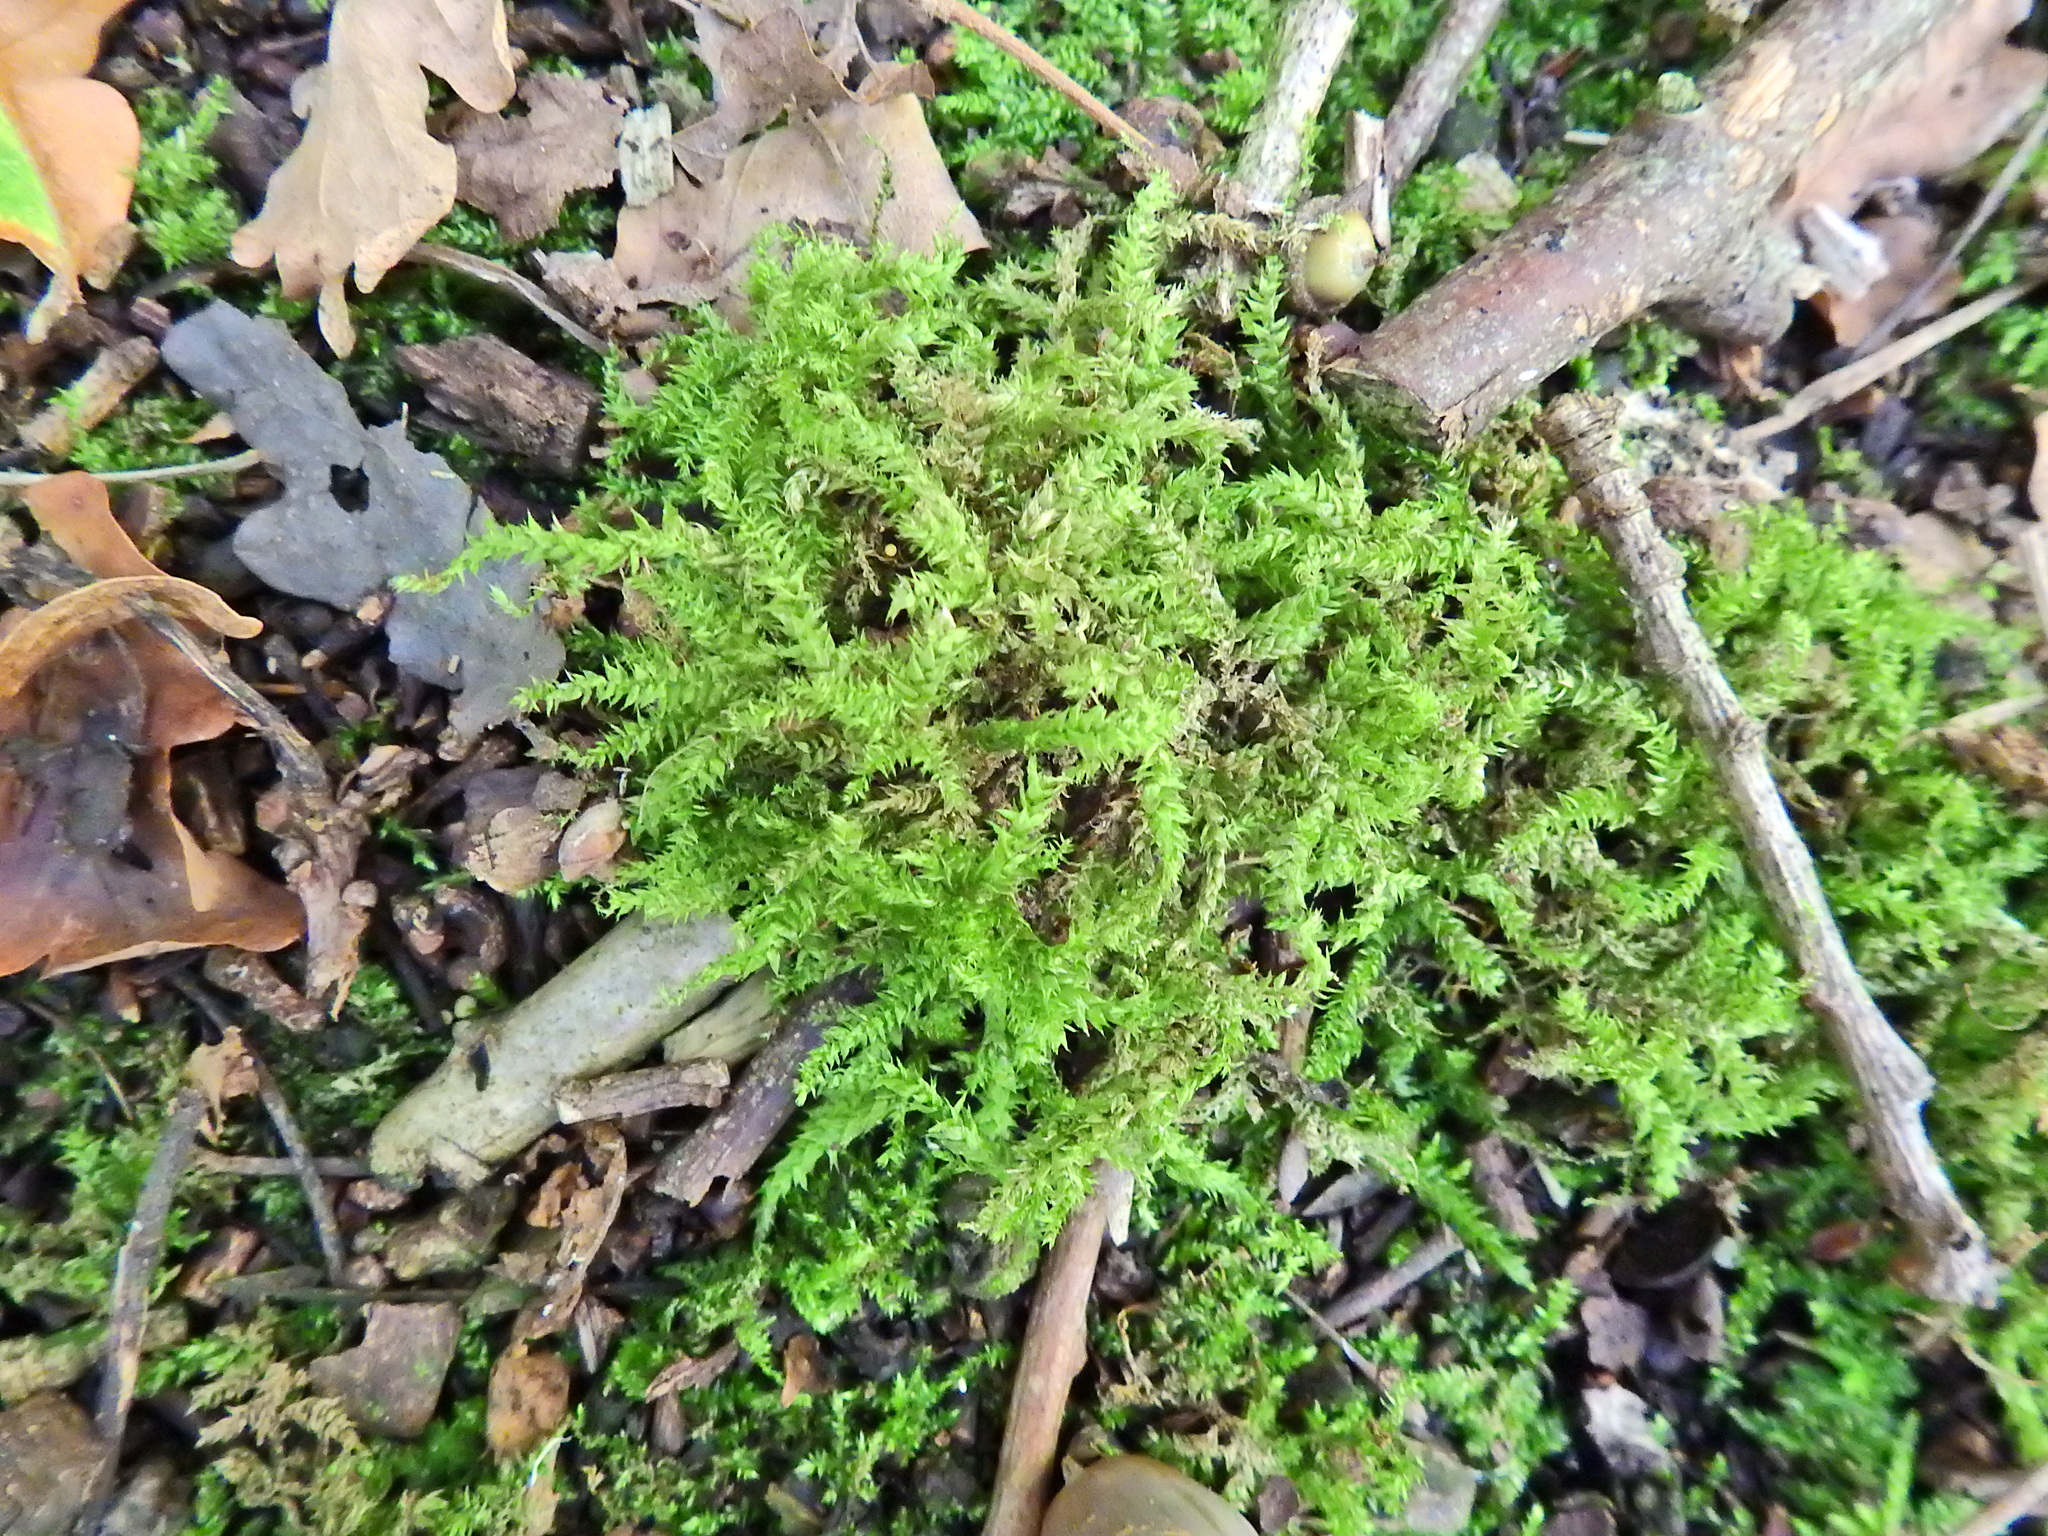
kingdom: Plantae
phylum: Bryophyta
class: Bryopsida
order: Hypnales
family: Brachytheciaceae
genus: Oxyrrhynchium
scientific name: Oxyrrhynchium hians
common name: Spreading beaked moss
